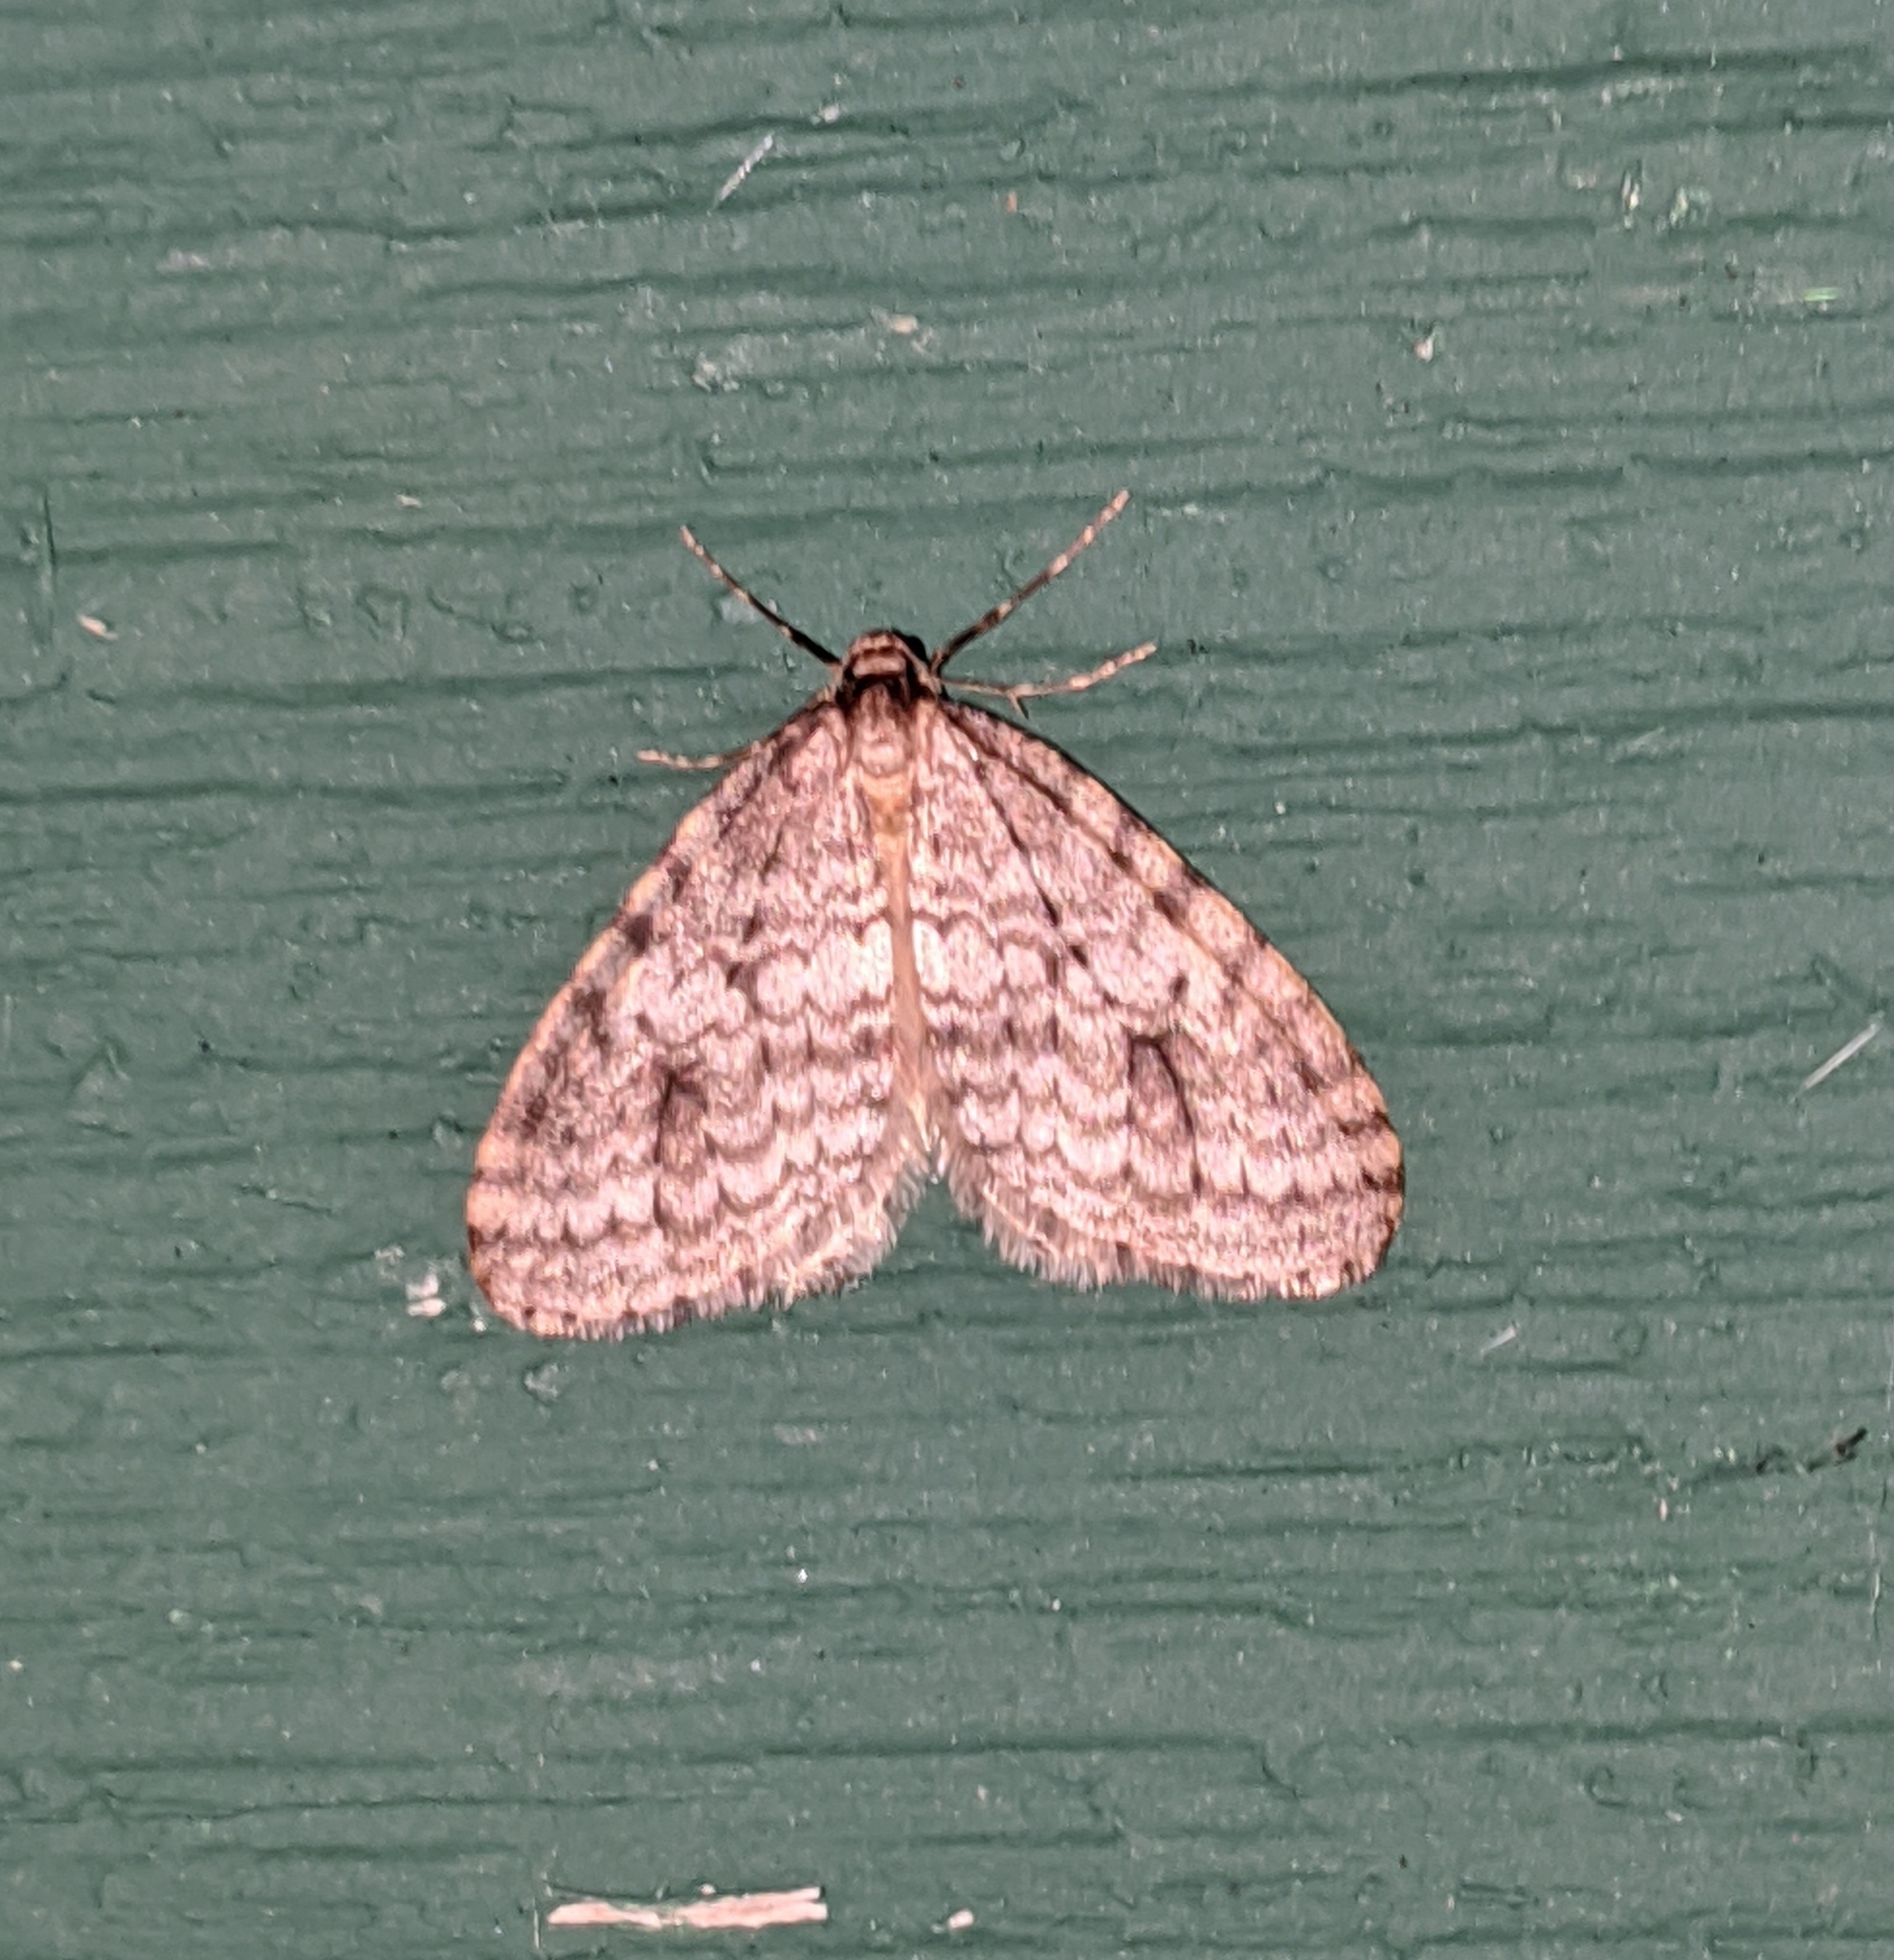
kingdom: Animalia
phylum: Arthropoda
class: Insecta
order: Lepidoptera
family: Geometridae
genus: Operophtera
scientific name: Operophtera occidentalis
